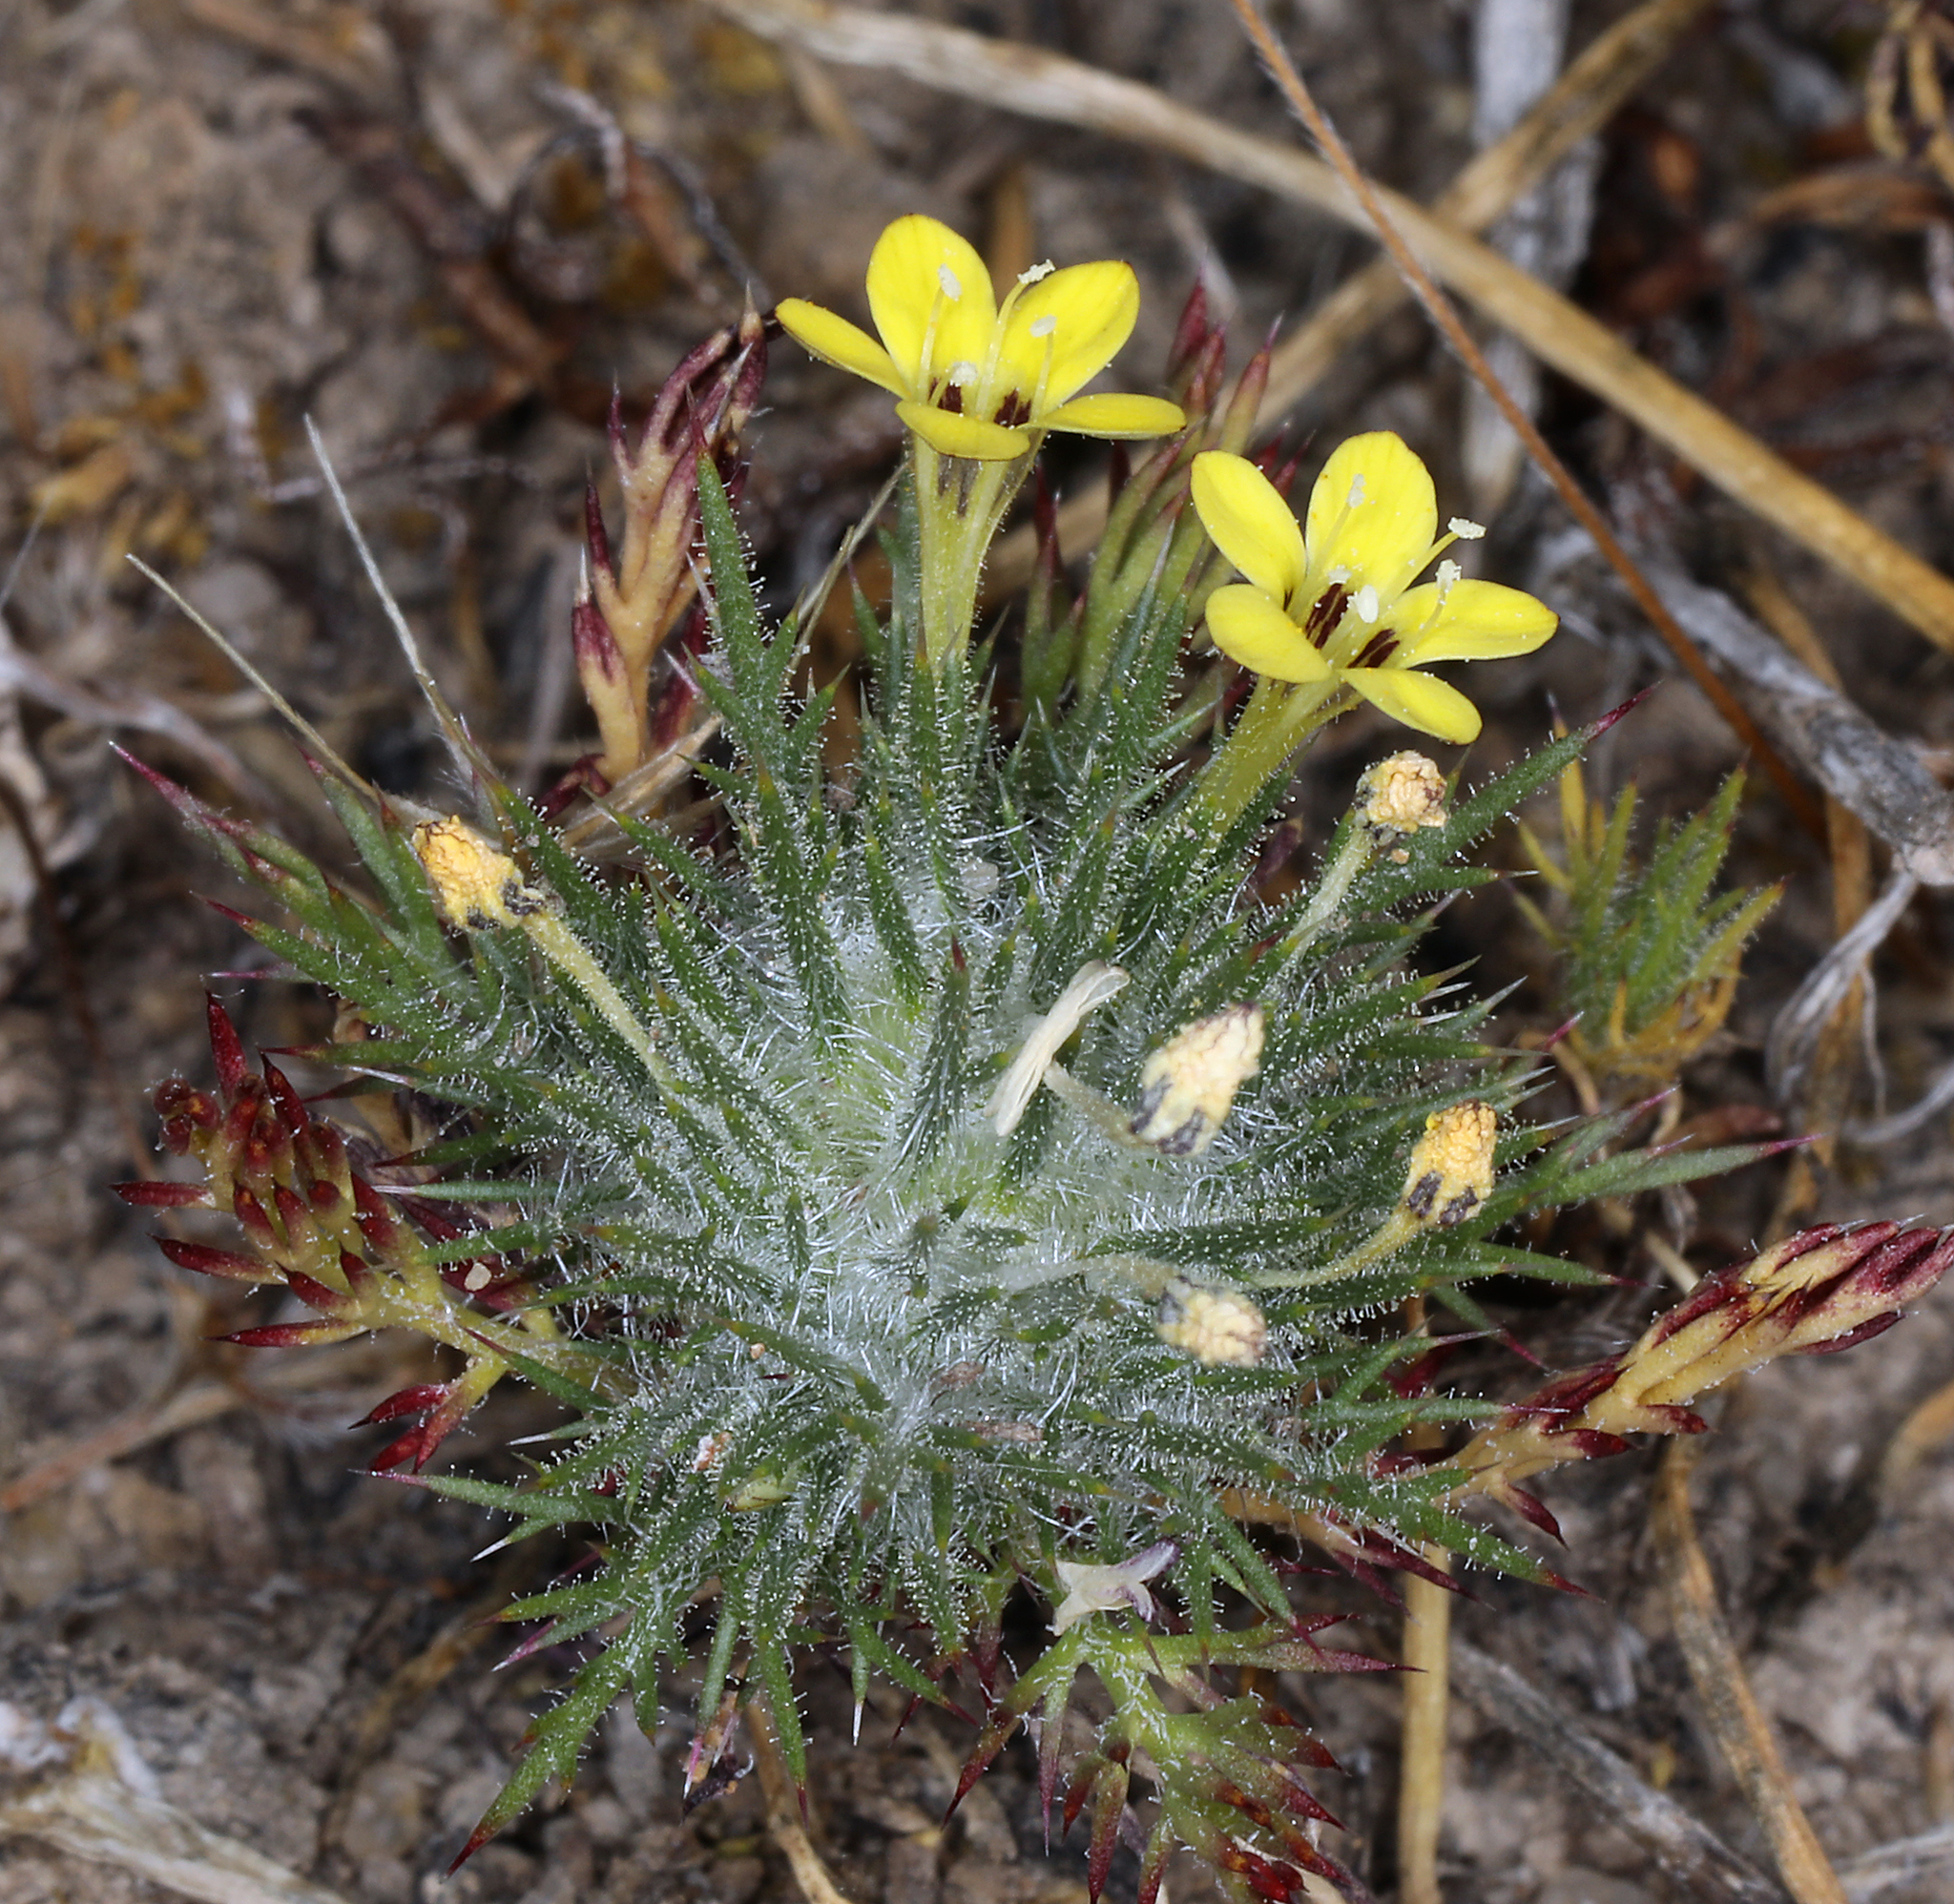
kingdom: Plantae
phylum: Tracheophyta
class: Magnoliopsida
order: Ericales
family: Polemoniaceae
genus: Navarretia
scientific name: Navarretia nigelliformis
